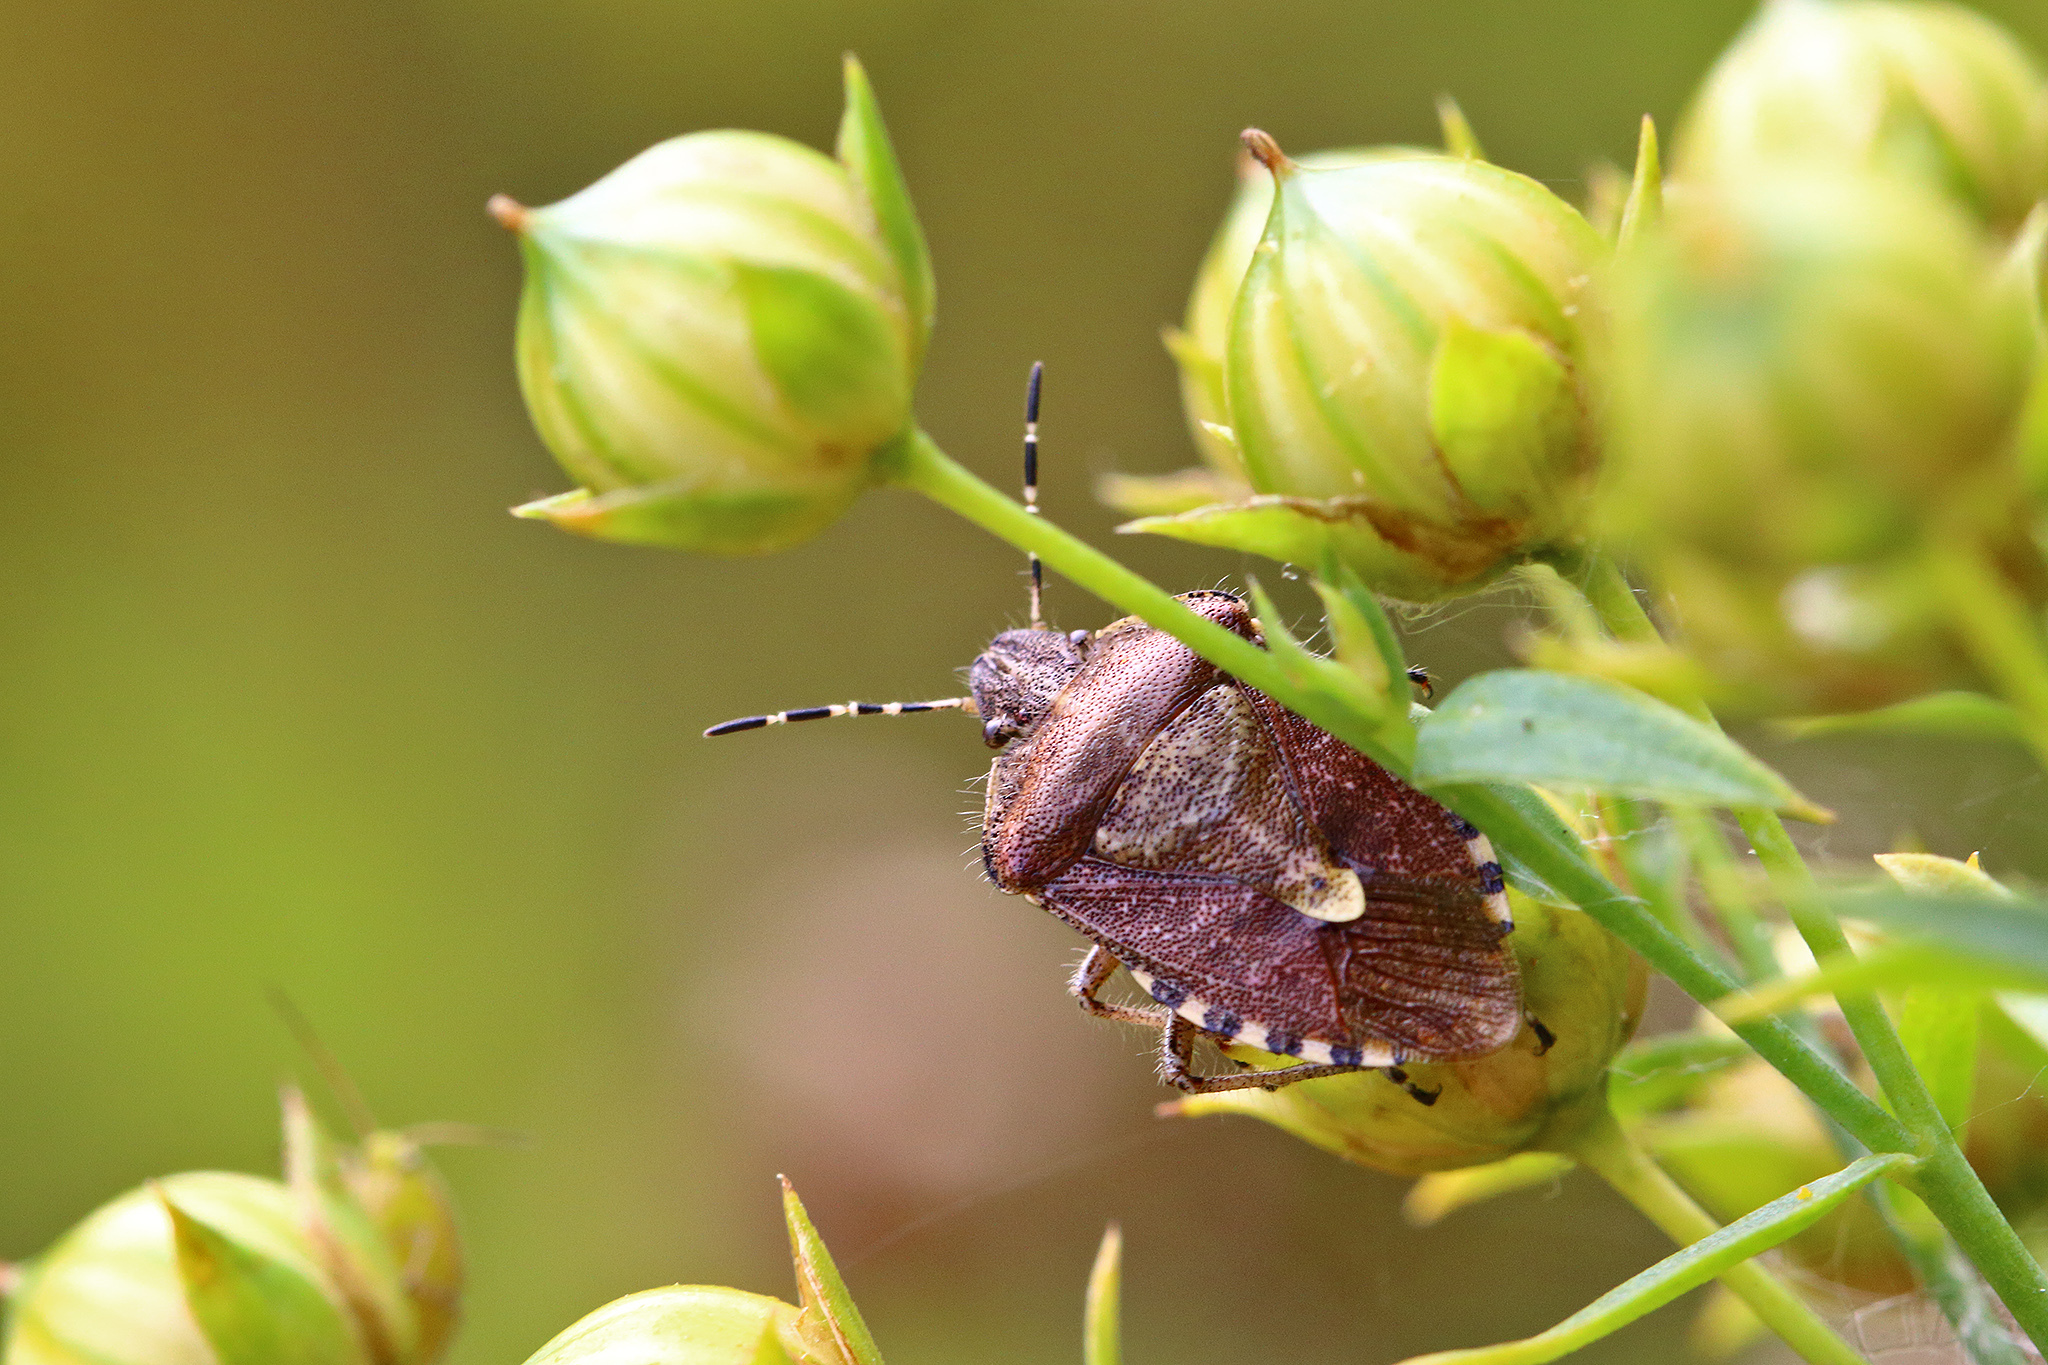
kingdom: Animalia
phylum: Arthropoda
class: Insecta
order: Hemiptera
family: Pentatomidae
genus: Dolycoris
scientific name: Dolycoris baccarum
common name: Sloe bug
